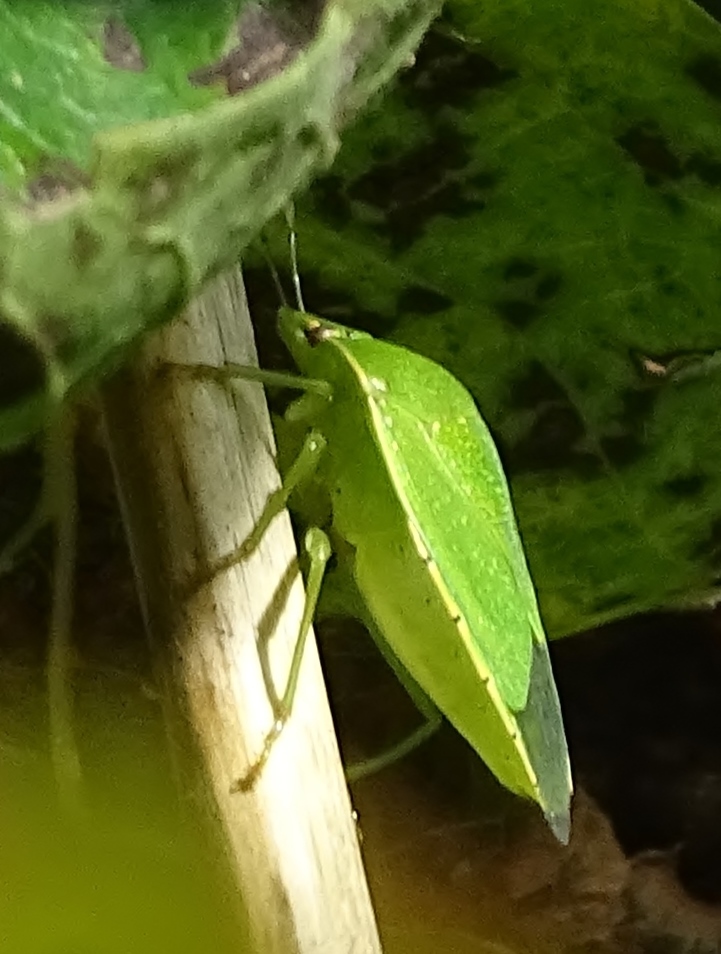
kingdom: Animalia
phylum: Arthropoda
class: Insecta
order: Hemiptera
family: Pentatomidae
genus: Chinavia
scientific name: Chinavia hilaris
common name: Green stink bug
